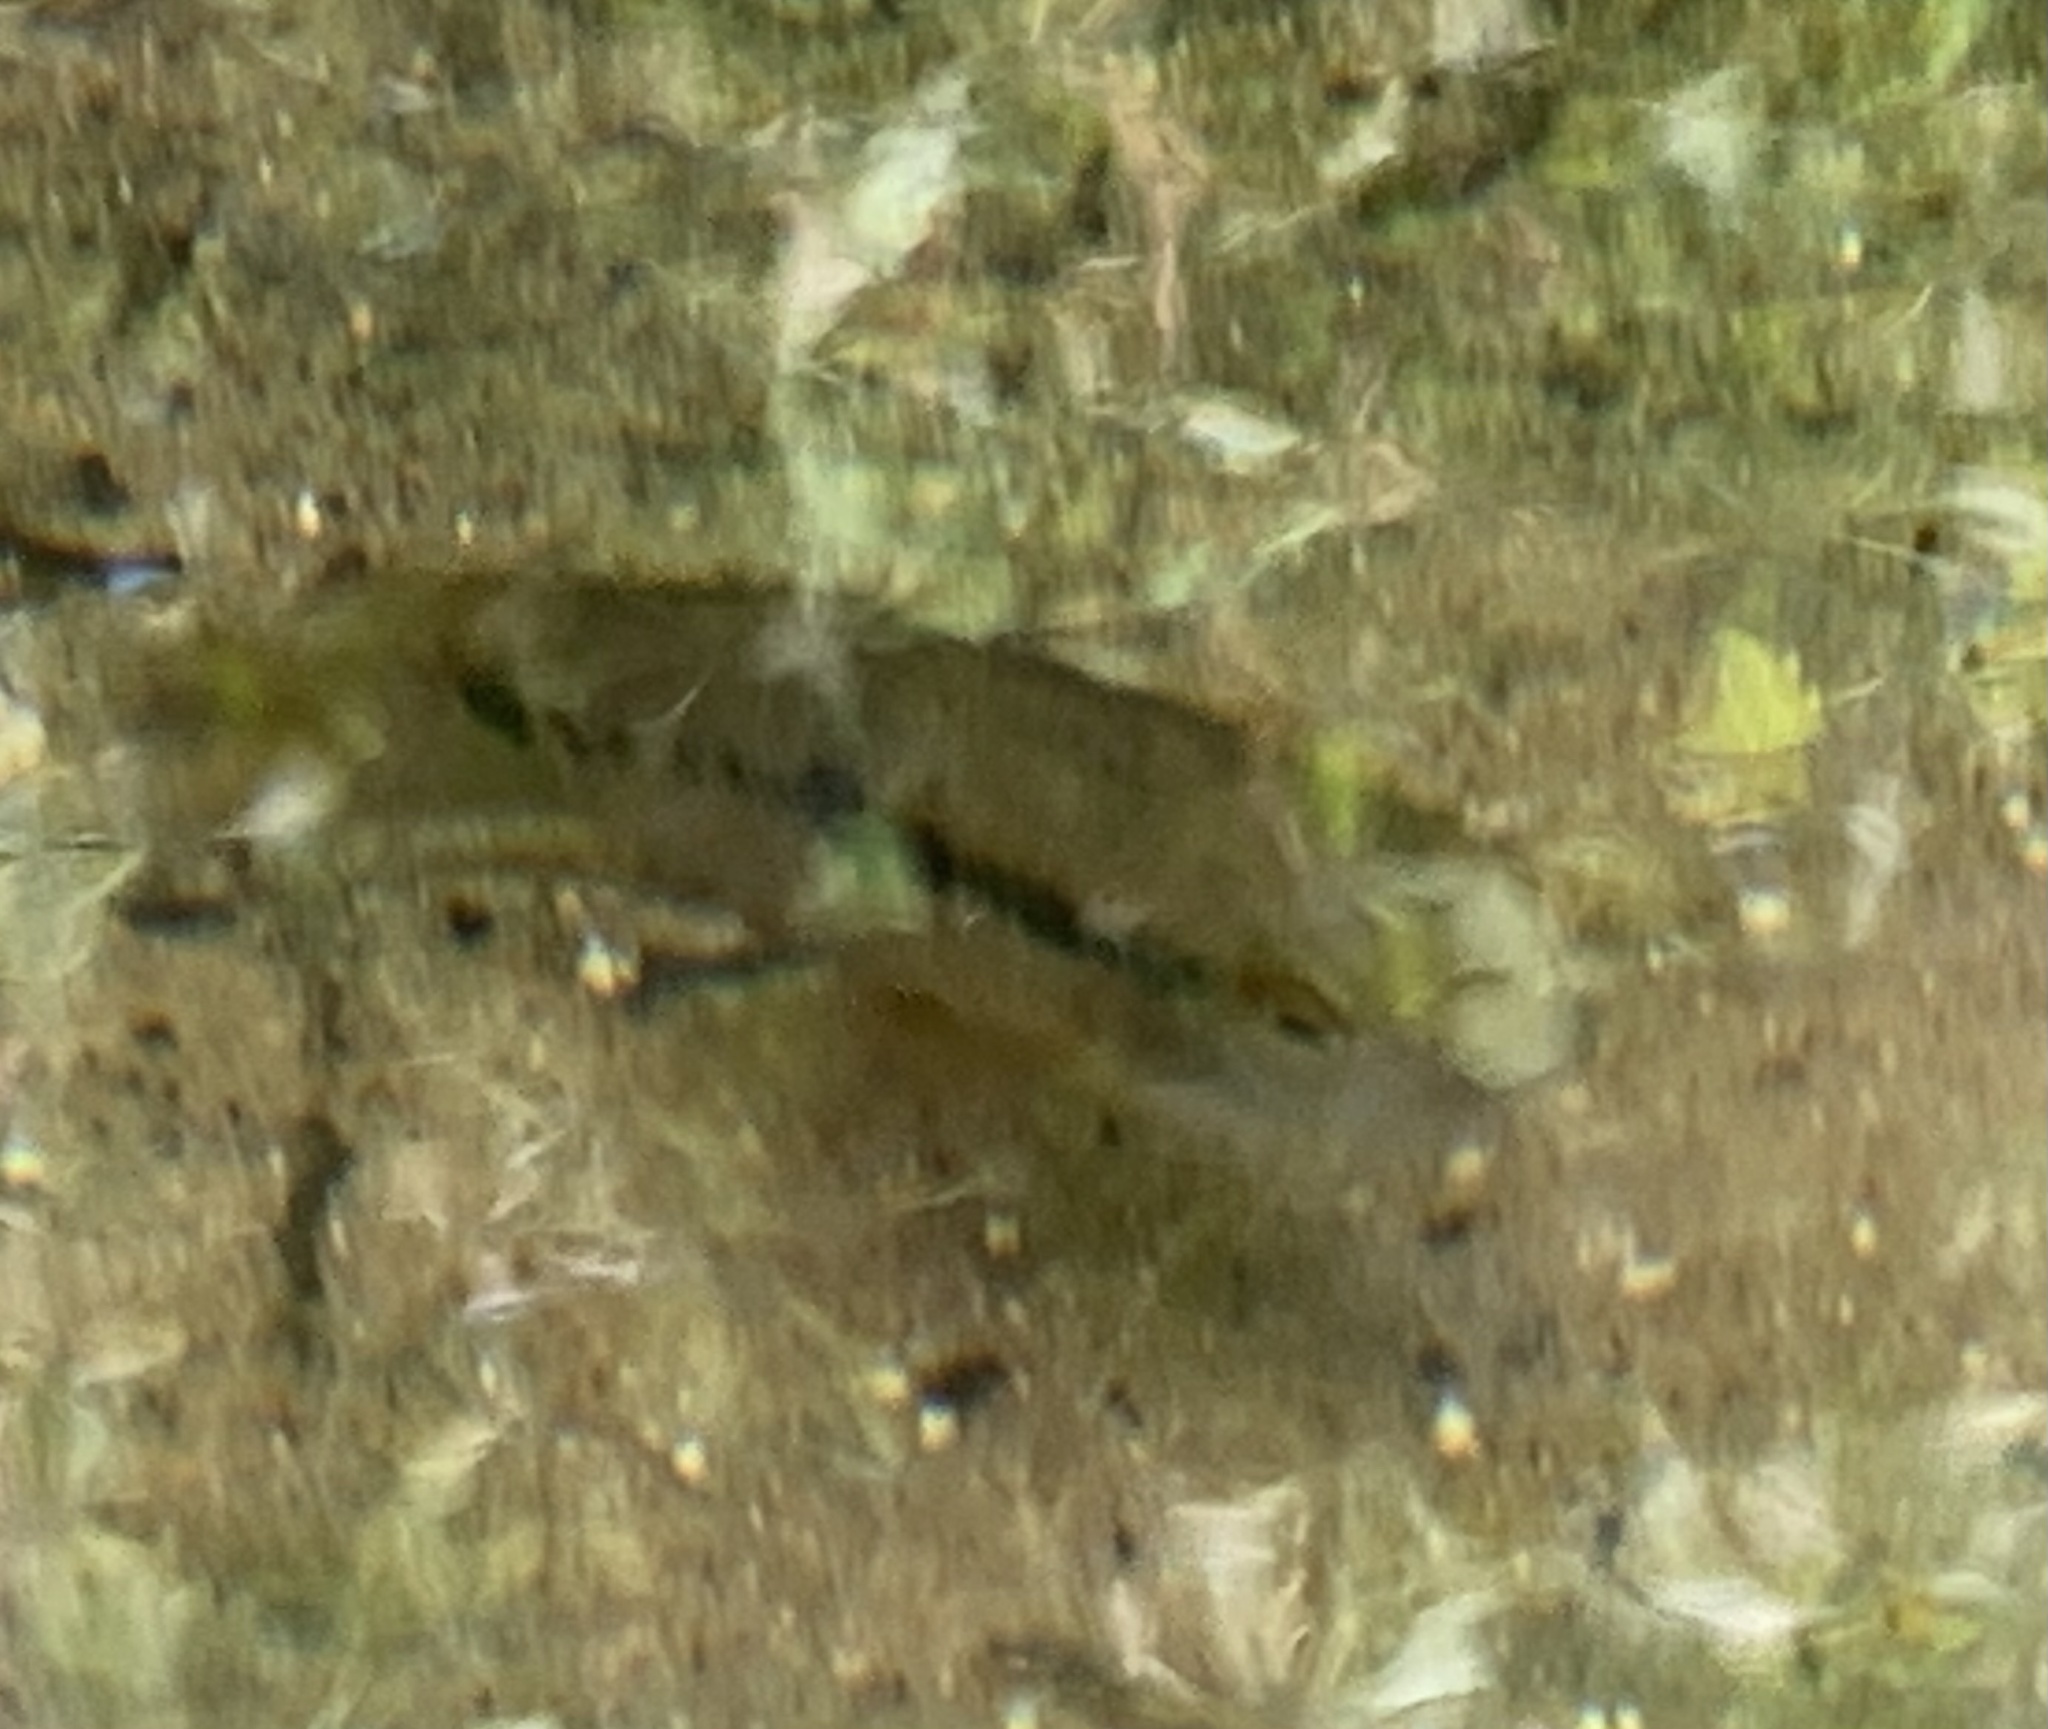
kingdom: Animalia
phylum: Chordata
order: Perciformes
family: Cichlidae
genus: Cichlasoma
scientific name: Cichlasoma dimerus
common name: Chanchita
